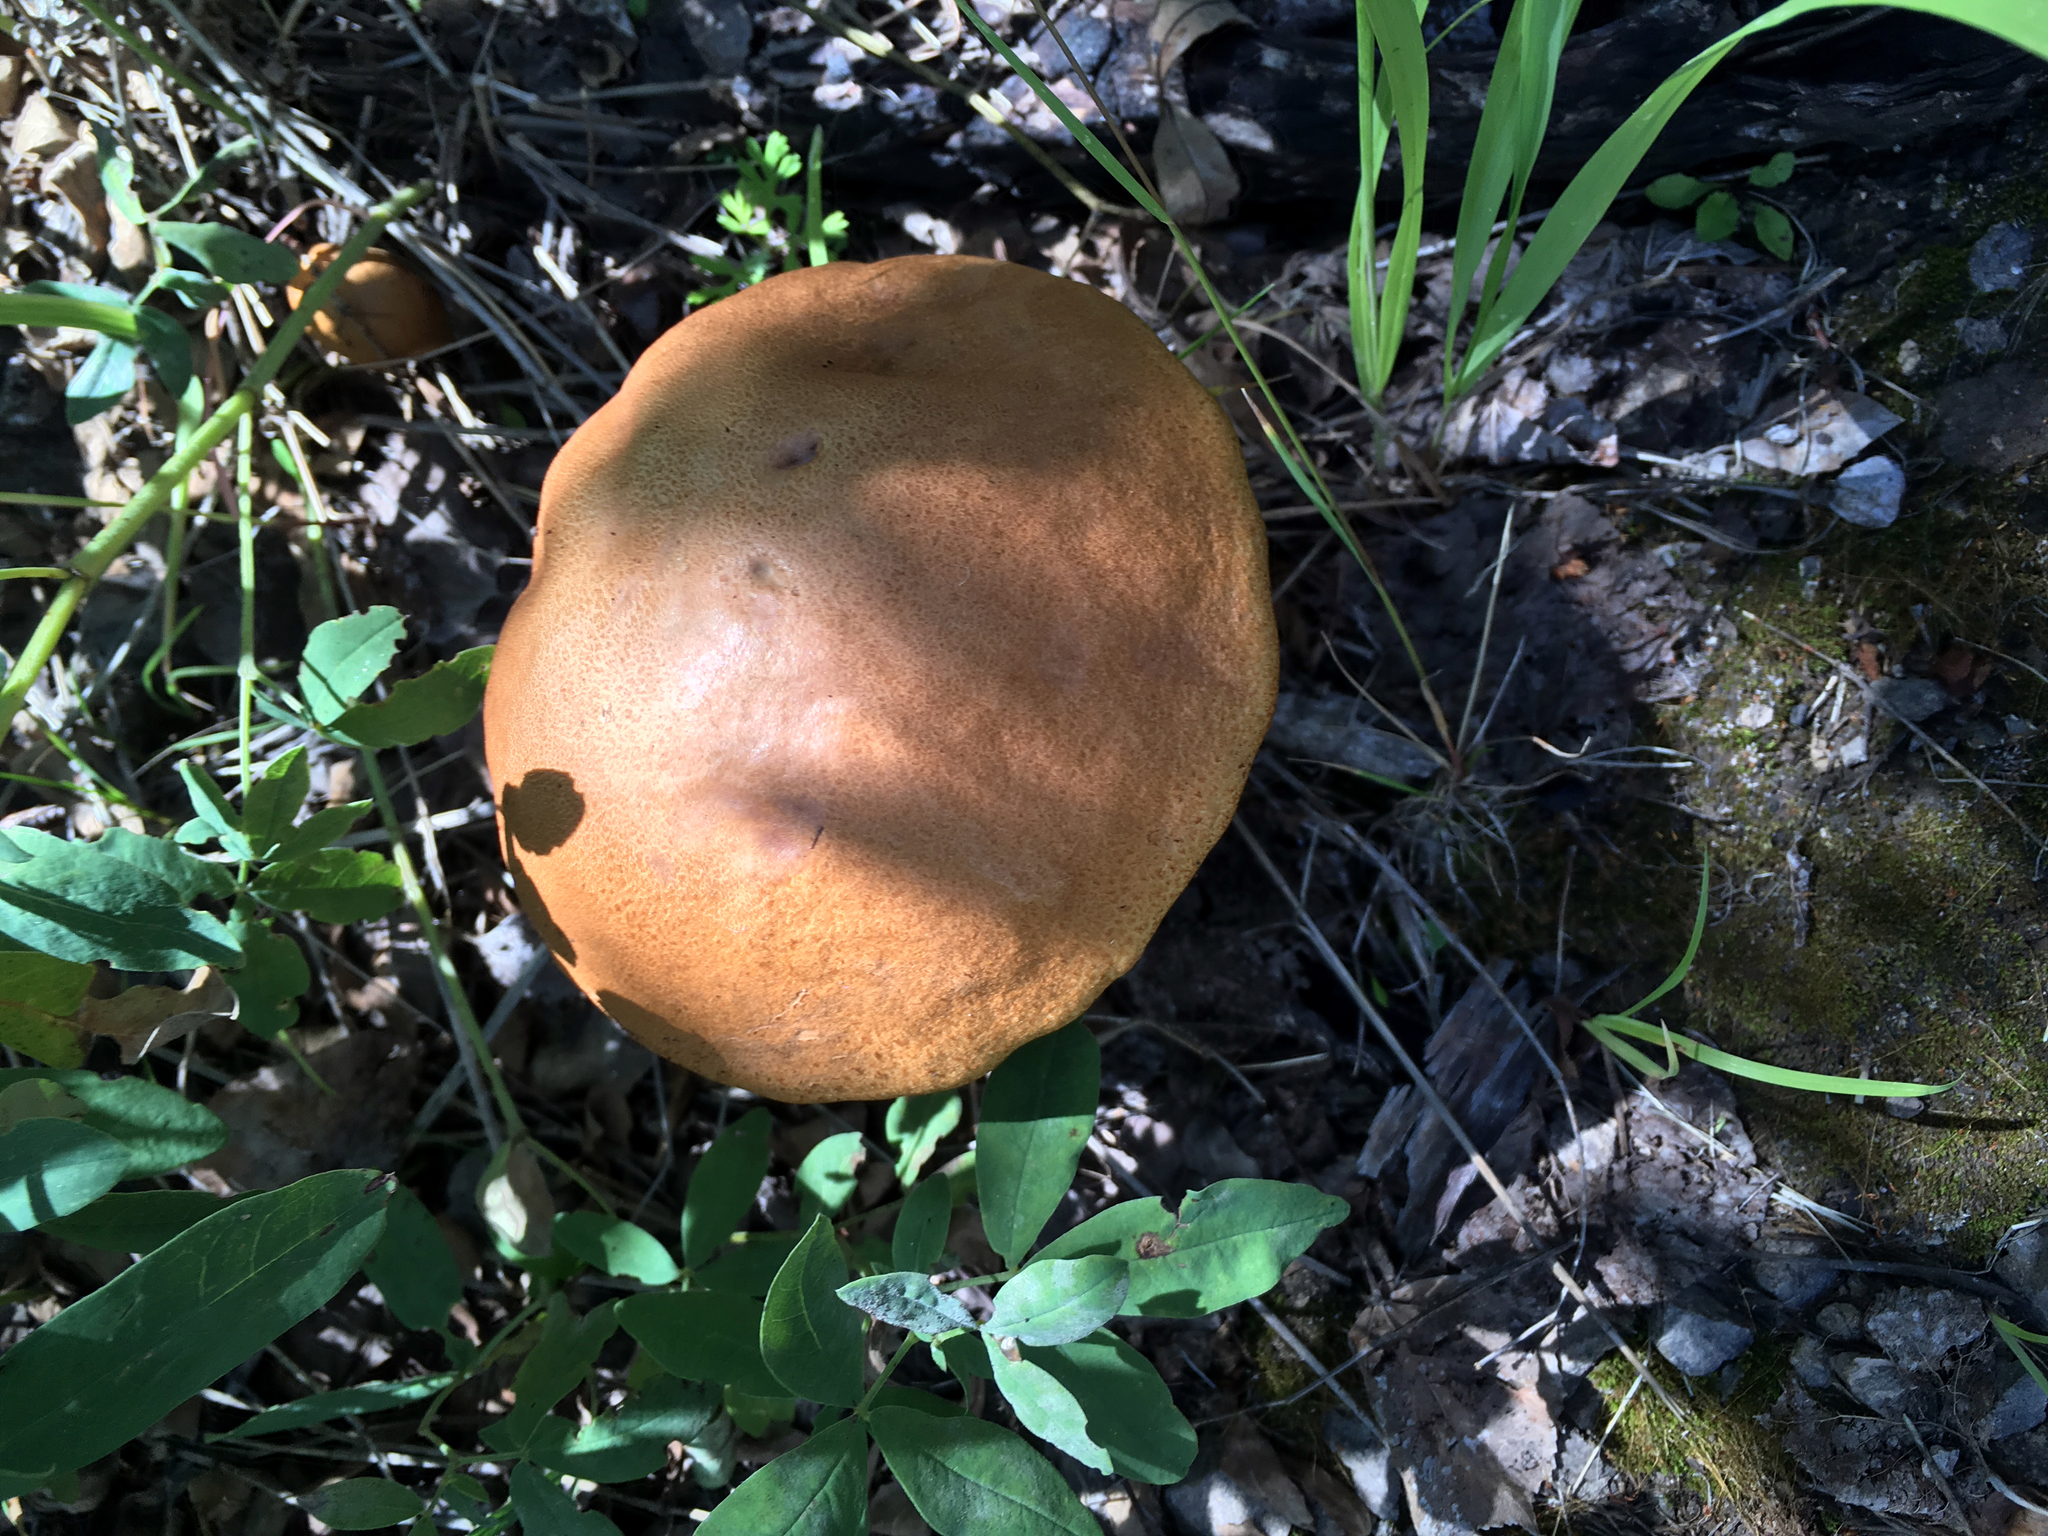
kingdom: Fungi
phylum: Basidiomycota
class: Agaricomycetes
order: Boletales
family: Boletaceae
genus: Leccinum
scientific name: Leccinum insigne
